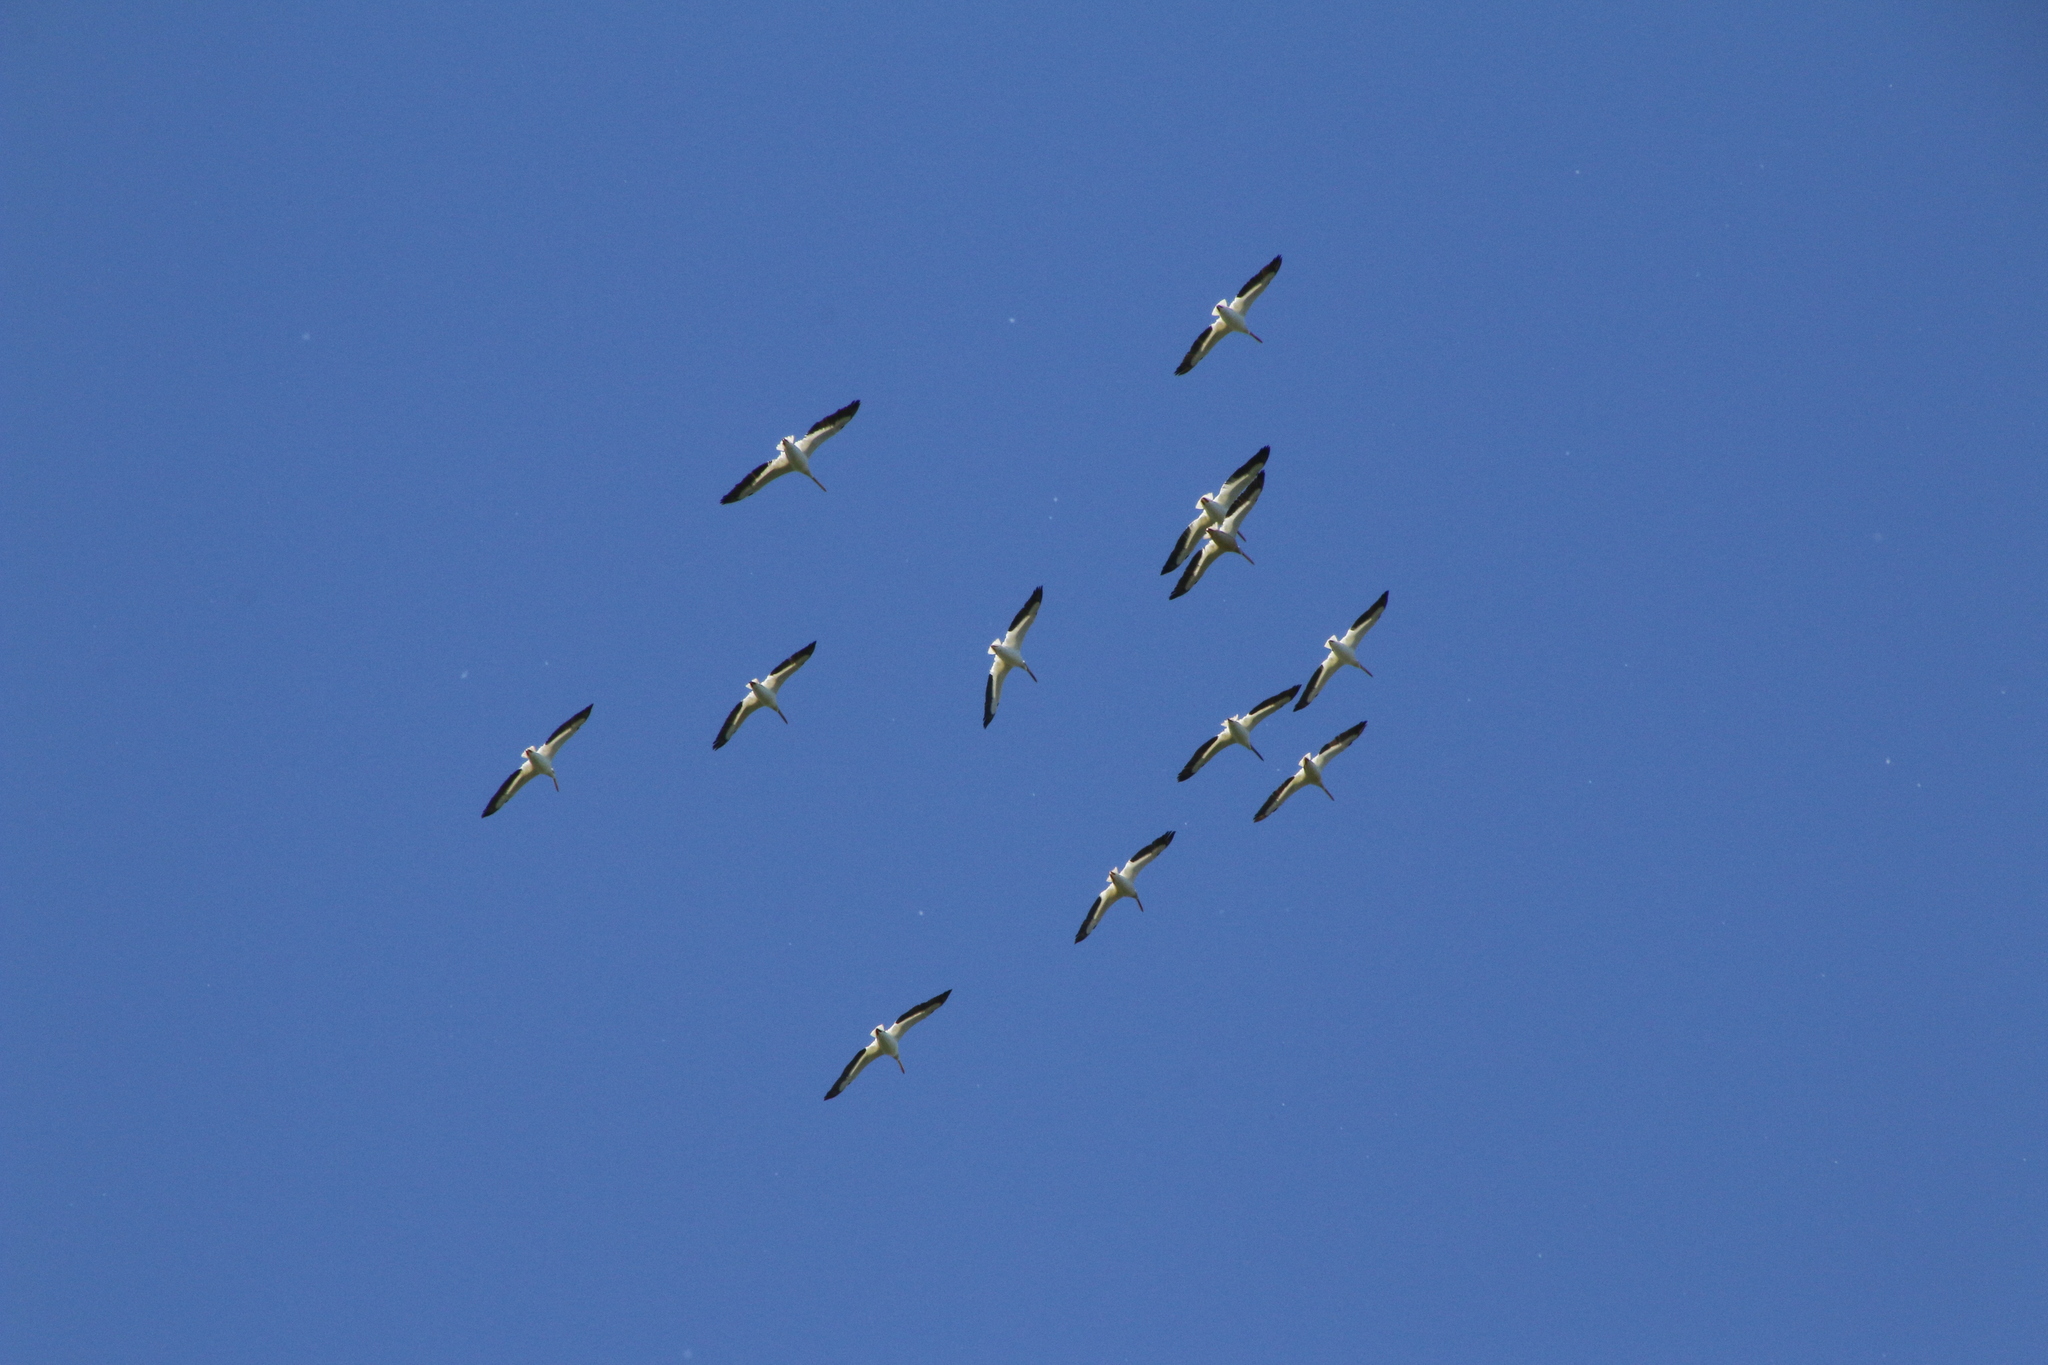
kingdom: Animalia
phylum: Chordata
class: Aves
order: Pelecaniformes
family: Pelecanidae
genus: Pelecanus
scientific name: Pelecanus erythrorhynchos
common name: American white pelican
